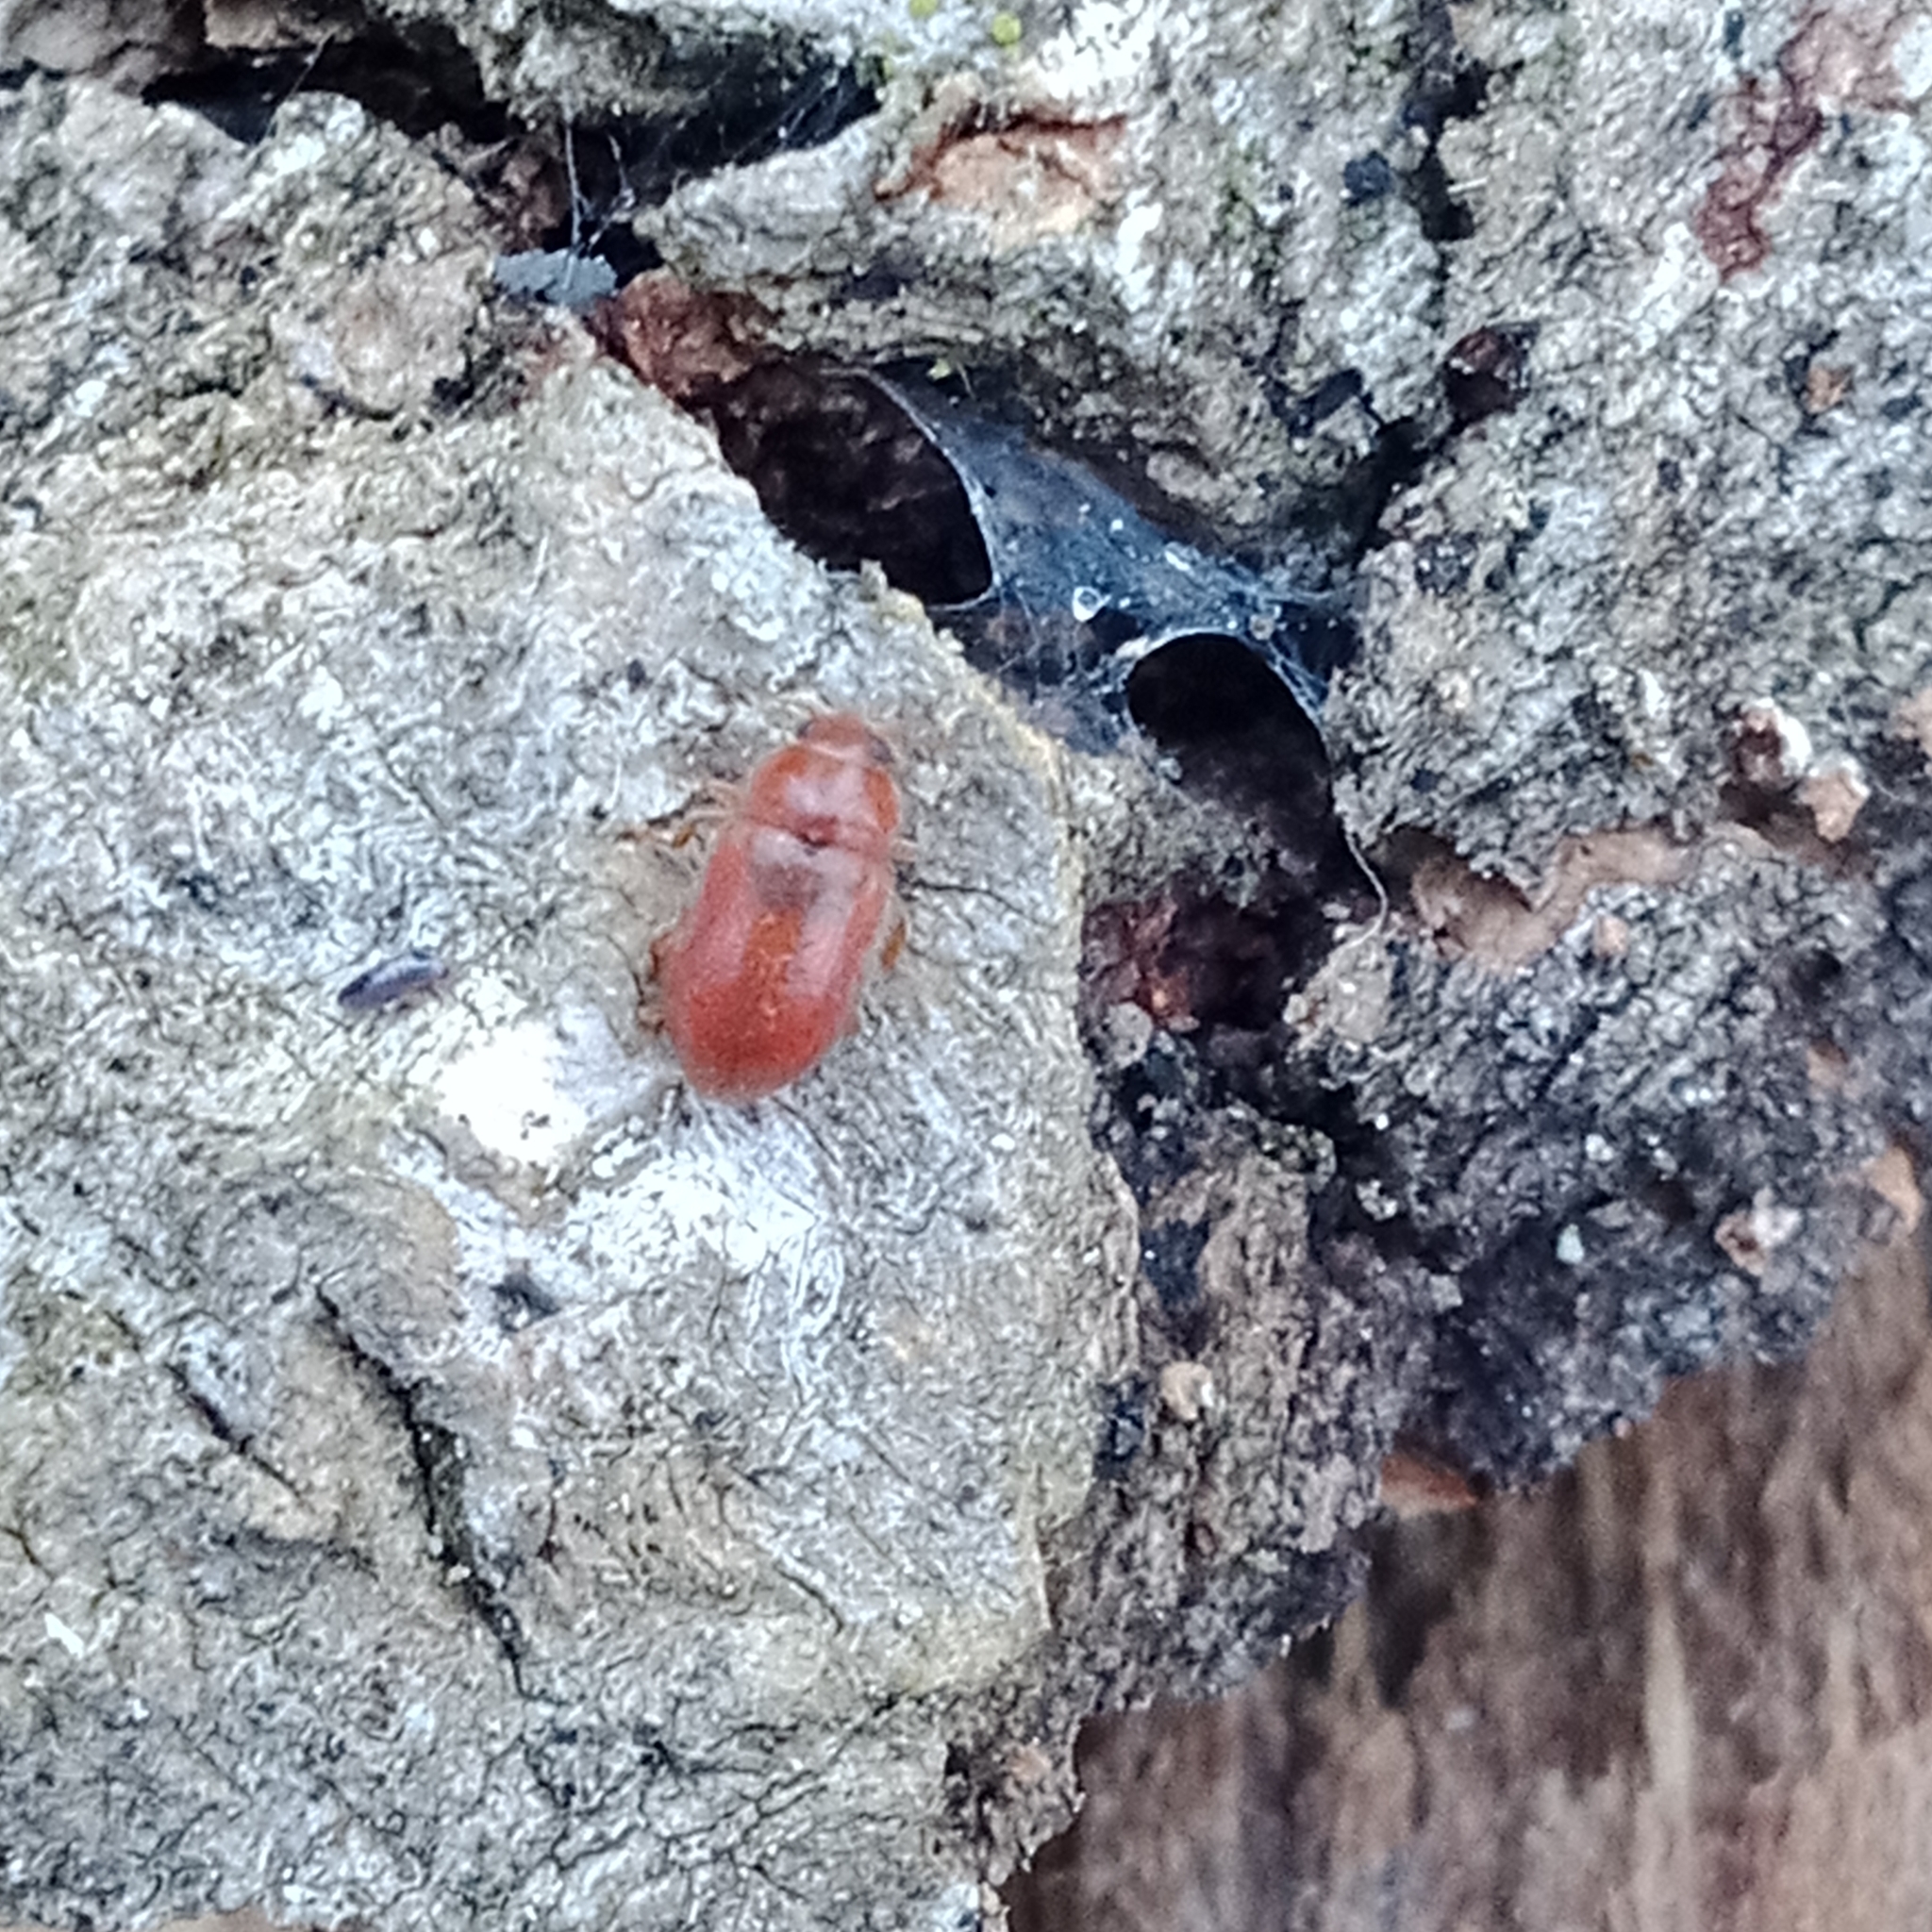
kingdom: Animalia
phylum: Arthropoda
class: Insecta
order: Coleoptera
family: Coccinellidae
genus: Coccidula
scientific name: Coccidula rufa
